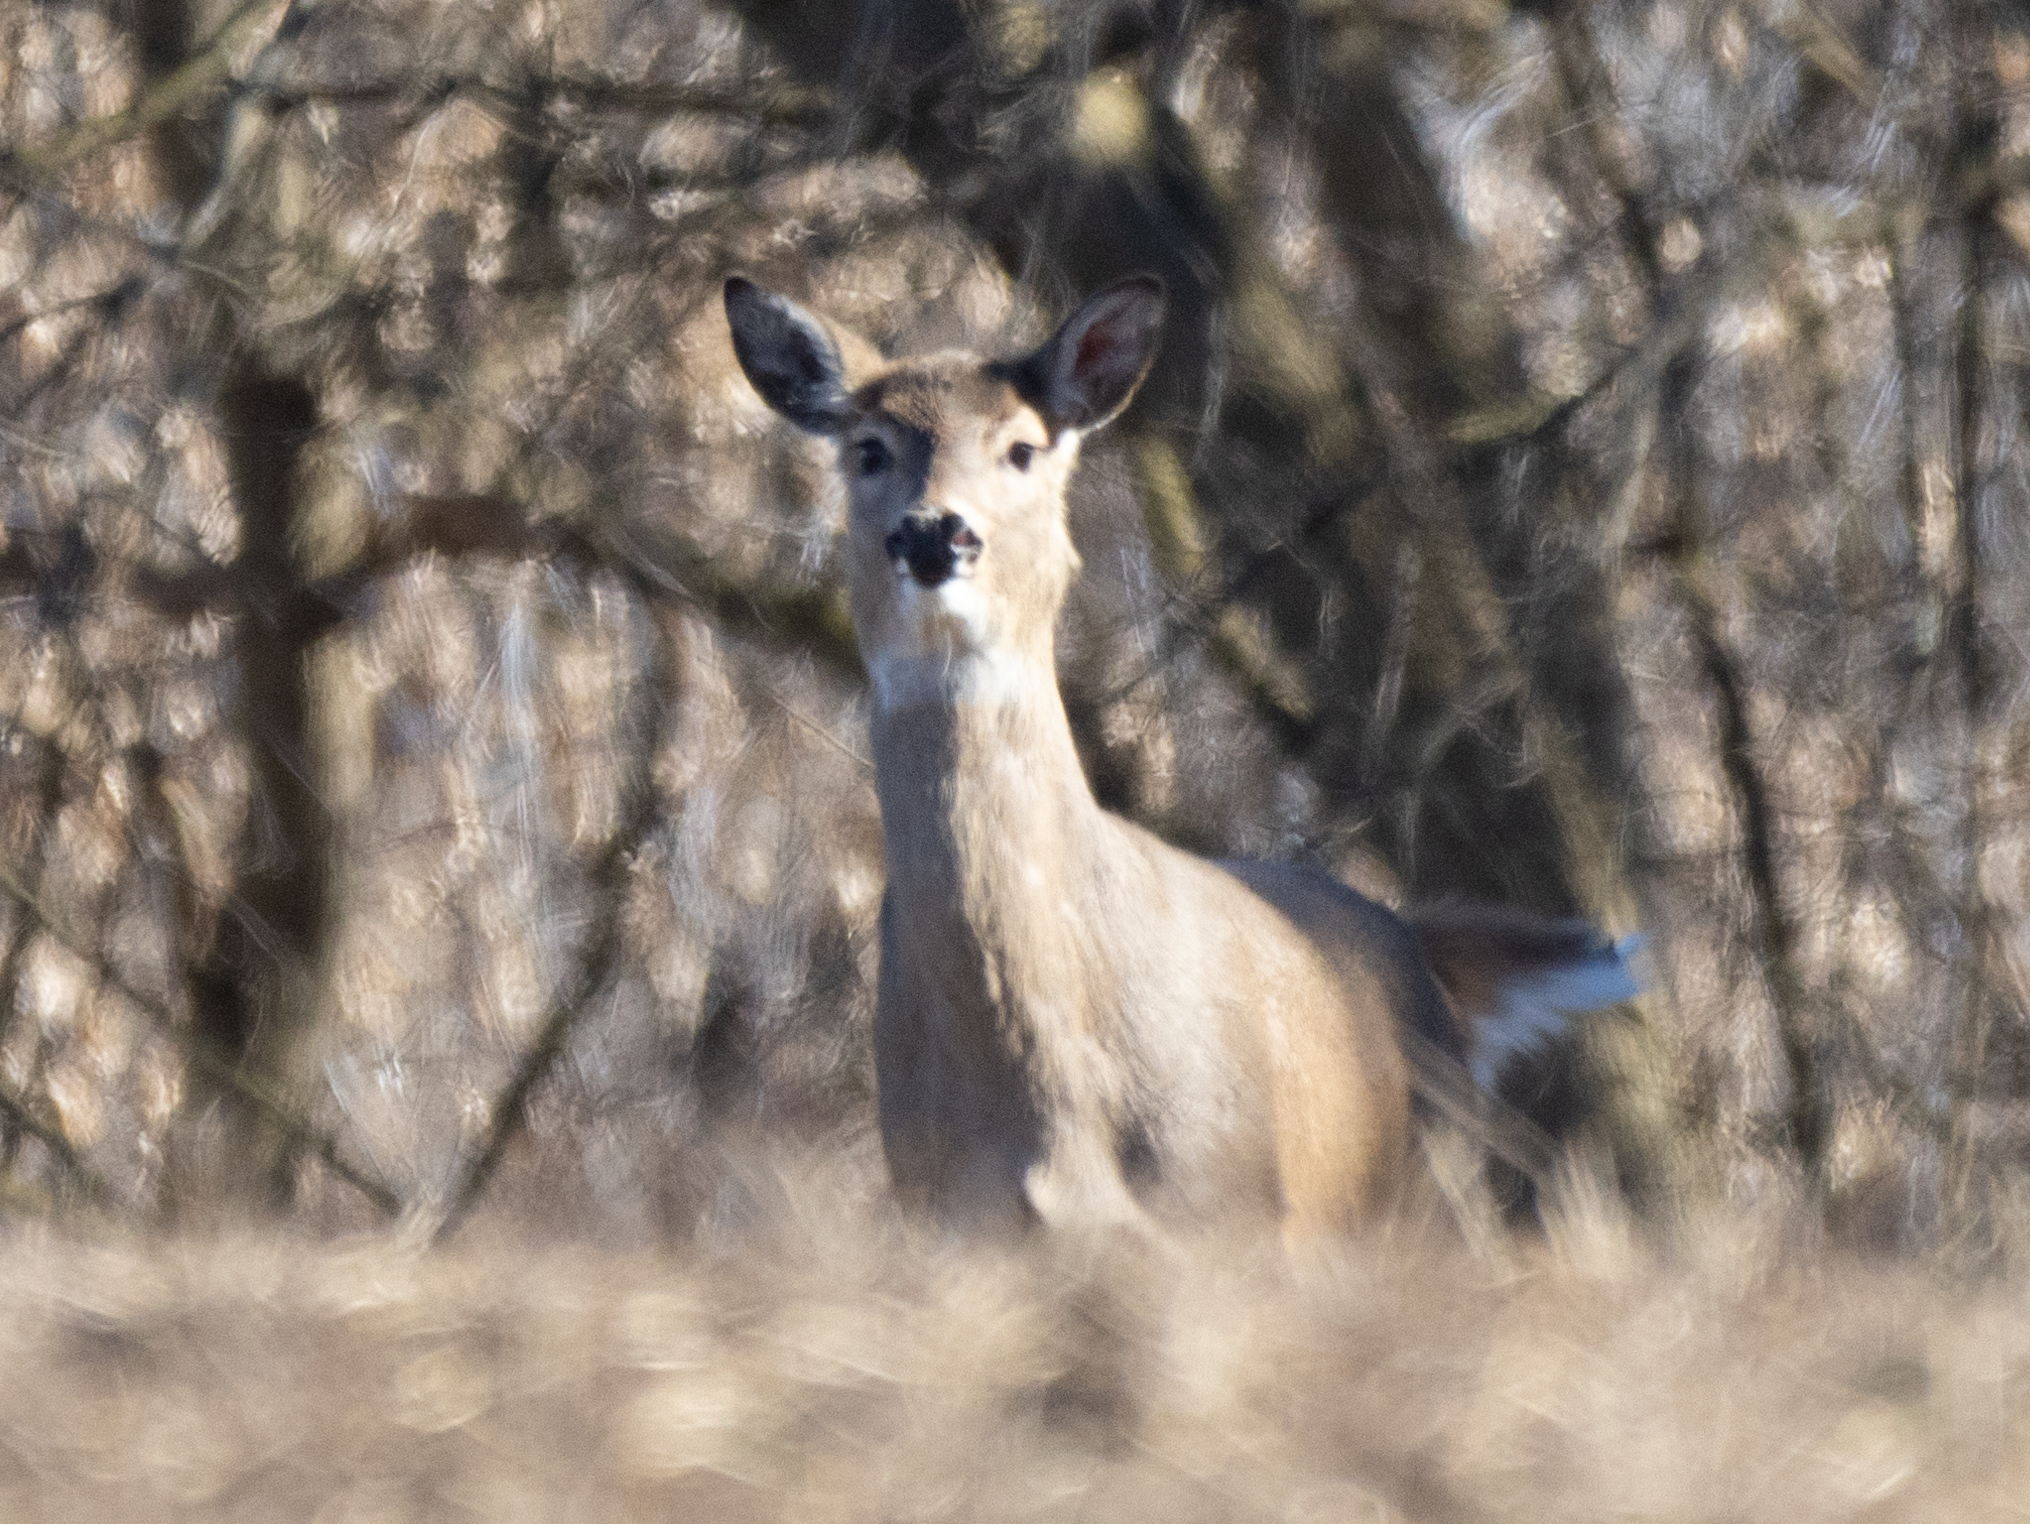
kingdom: Animalia
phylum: Chordata
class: Mammalia
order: Artiodactyla
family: Cervidae
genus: Odocoileus
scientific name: Odocoileus virginianus
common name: White-tailed deer
